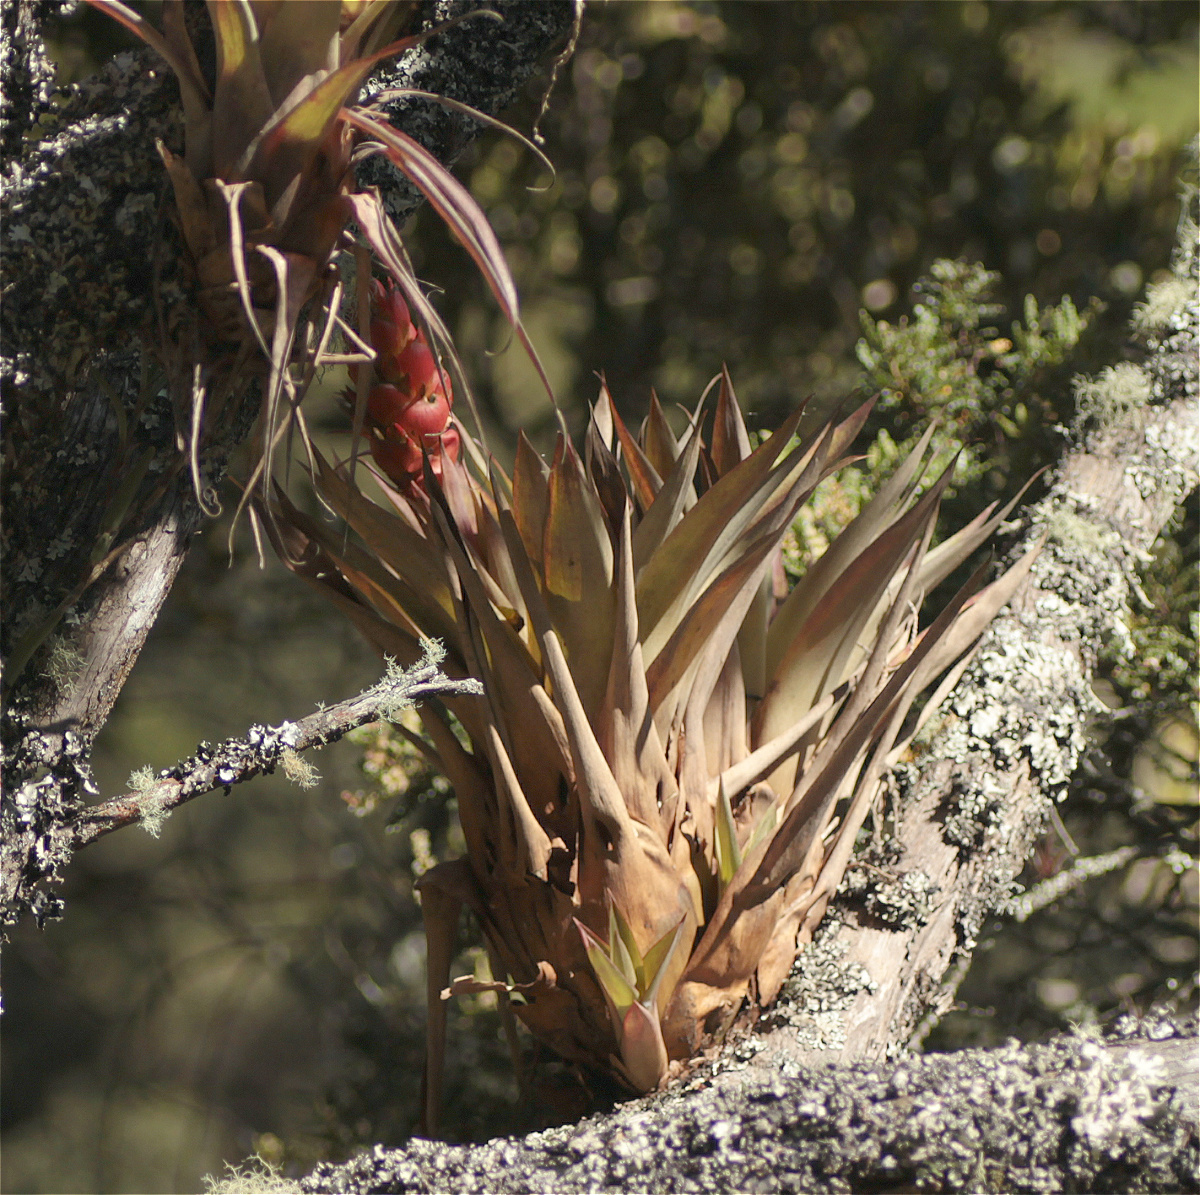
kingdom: Plantae
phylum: Tracheophyta
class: Liliopsida
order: Poales
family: Bromeliaceae
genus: Tillandsia
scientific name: Tillandsia turneri
